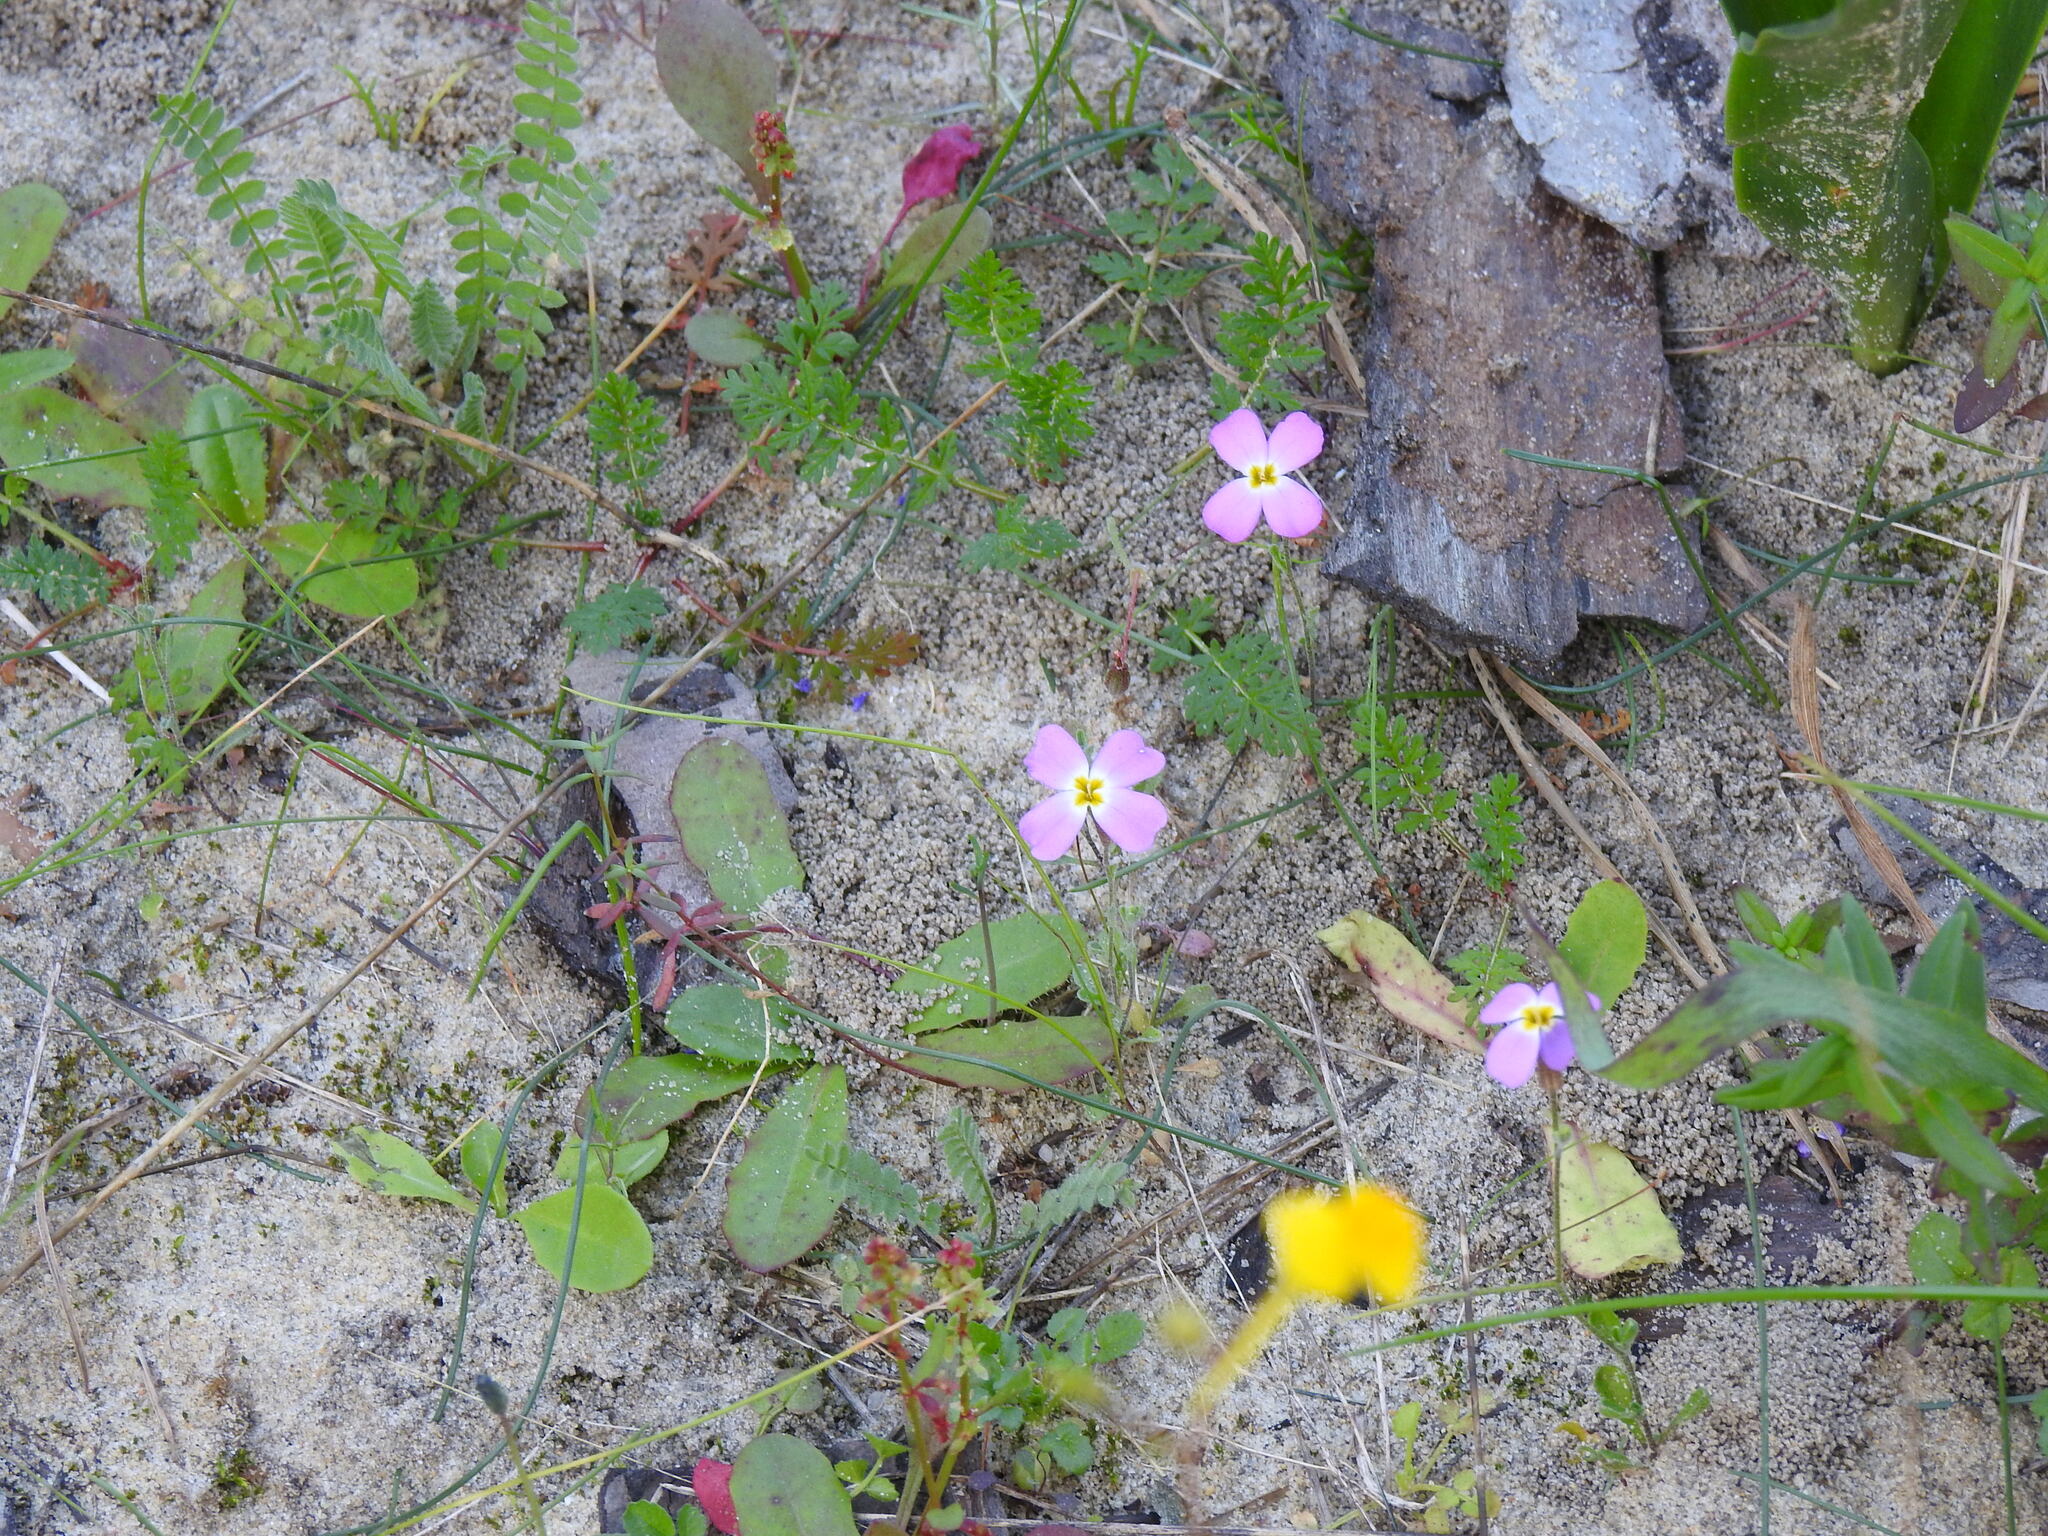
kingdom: Plantae
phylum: Tracheophyta
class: Magnoliopsida
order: Brassicales
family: Brassicaceae
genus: Marcuskochia
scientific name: Marcuskochia triloba
